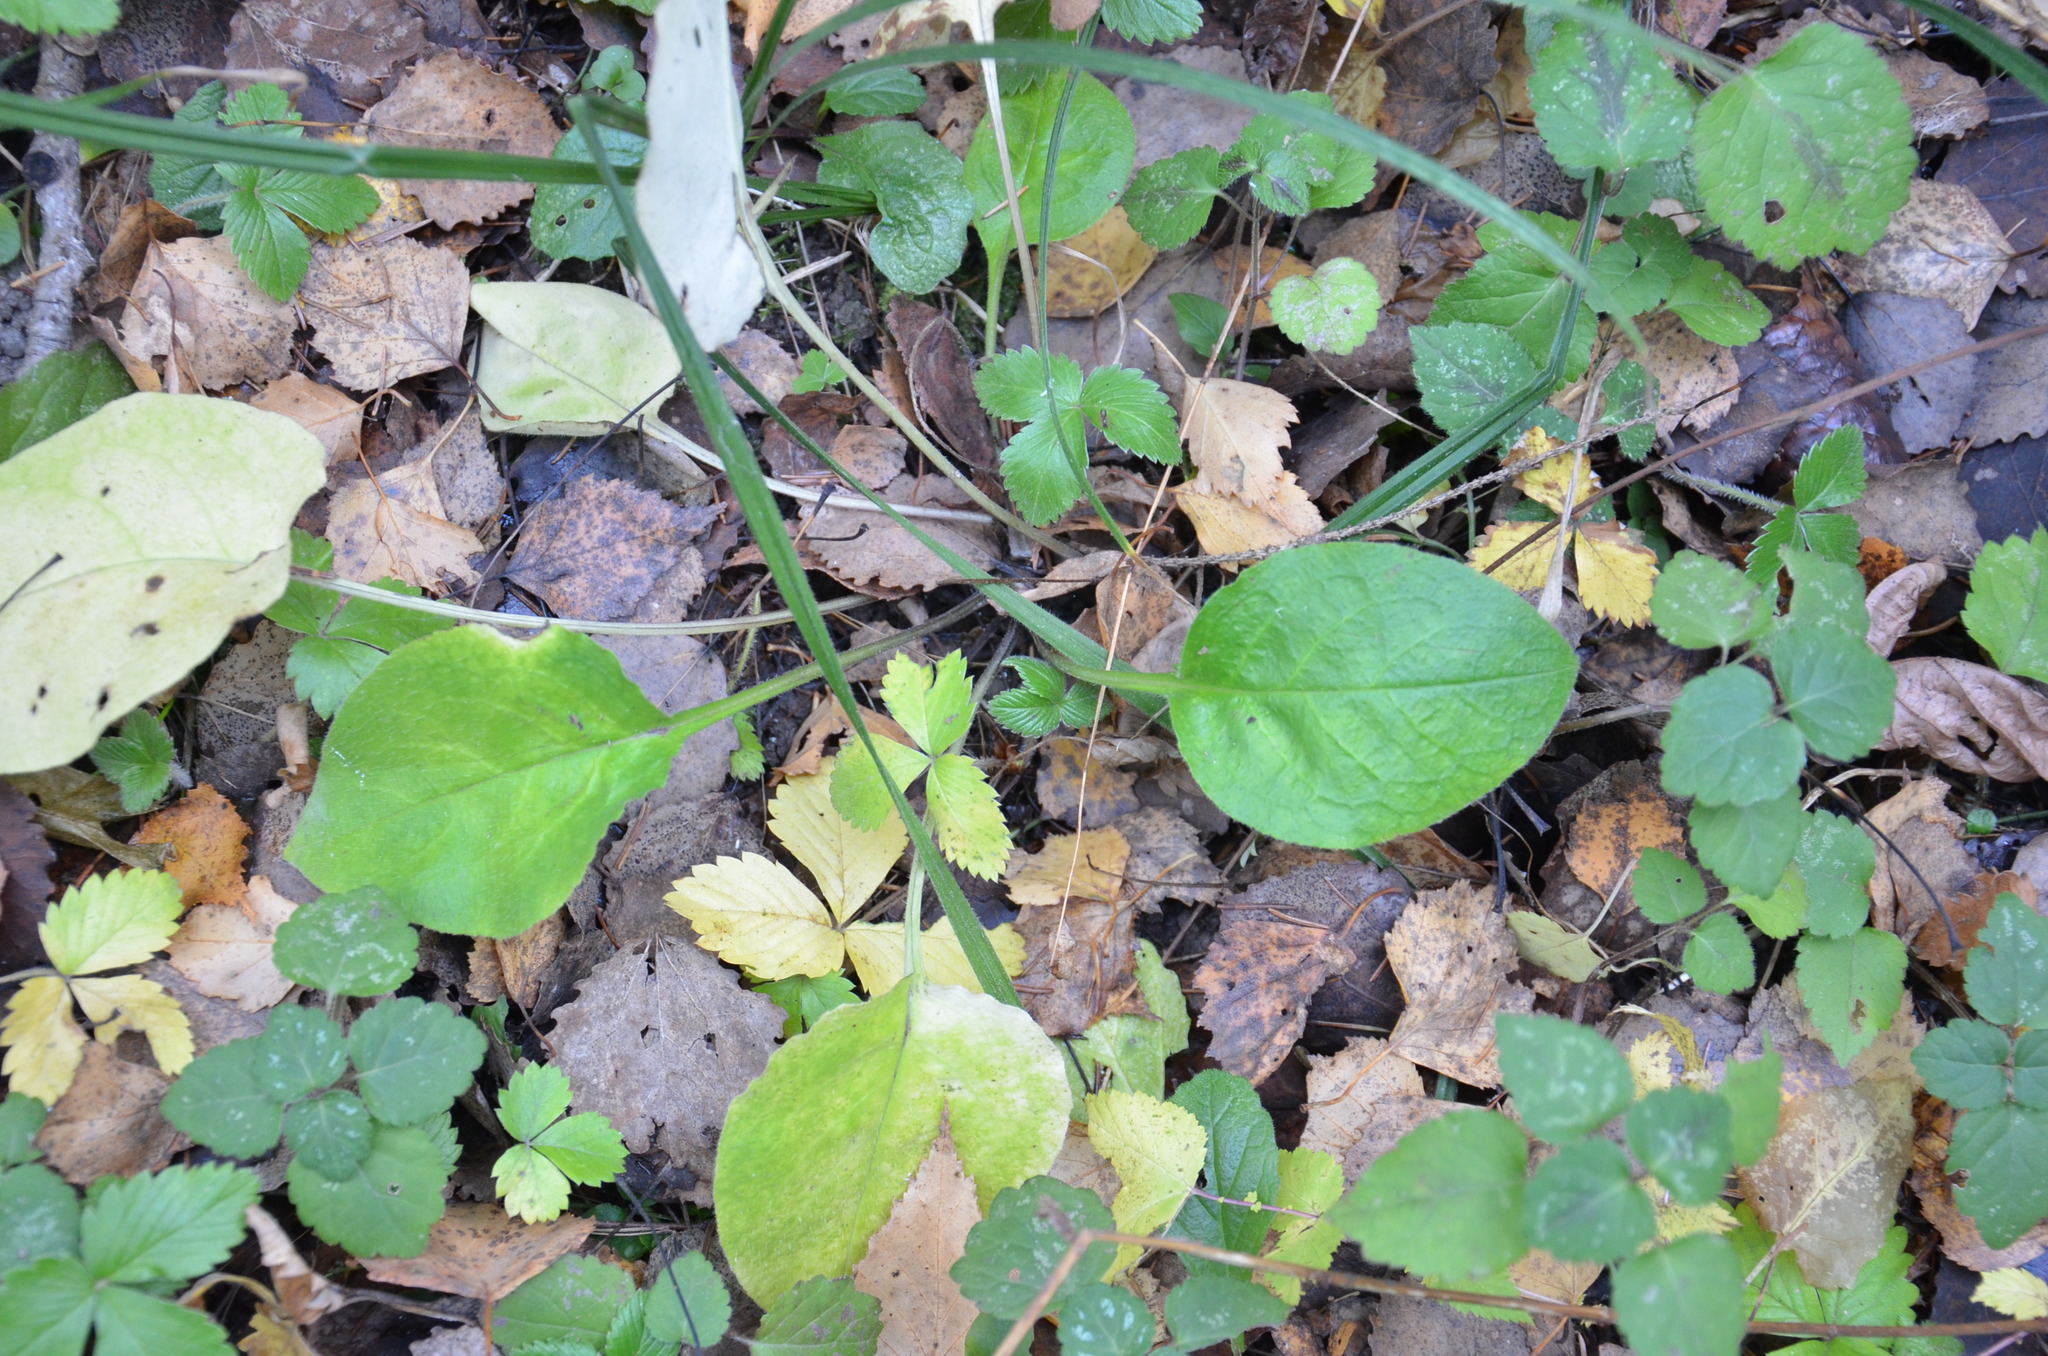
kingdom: Plantae
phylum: Tracheophyta
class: Magnoliopsida
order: Boraginales
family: Boraginaceae
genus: Pulmonaria
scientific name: Pulmonaria obscura
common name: Suffolk lungwort
